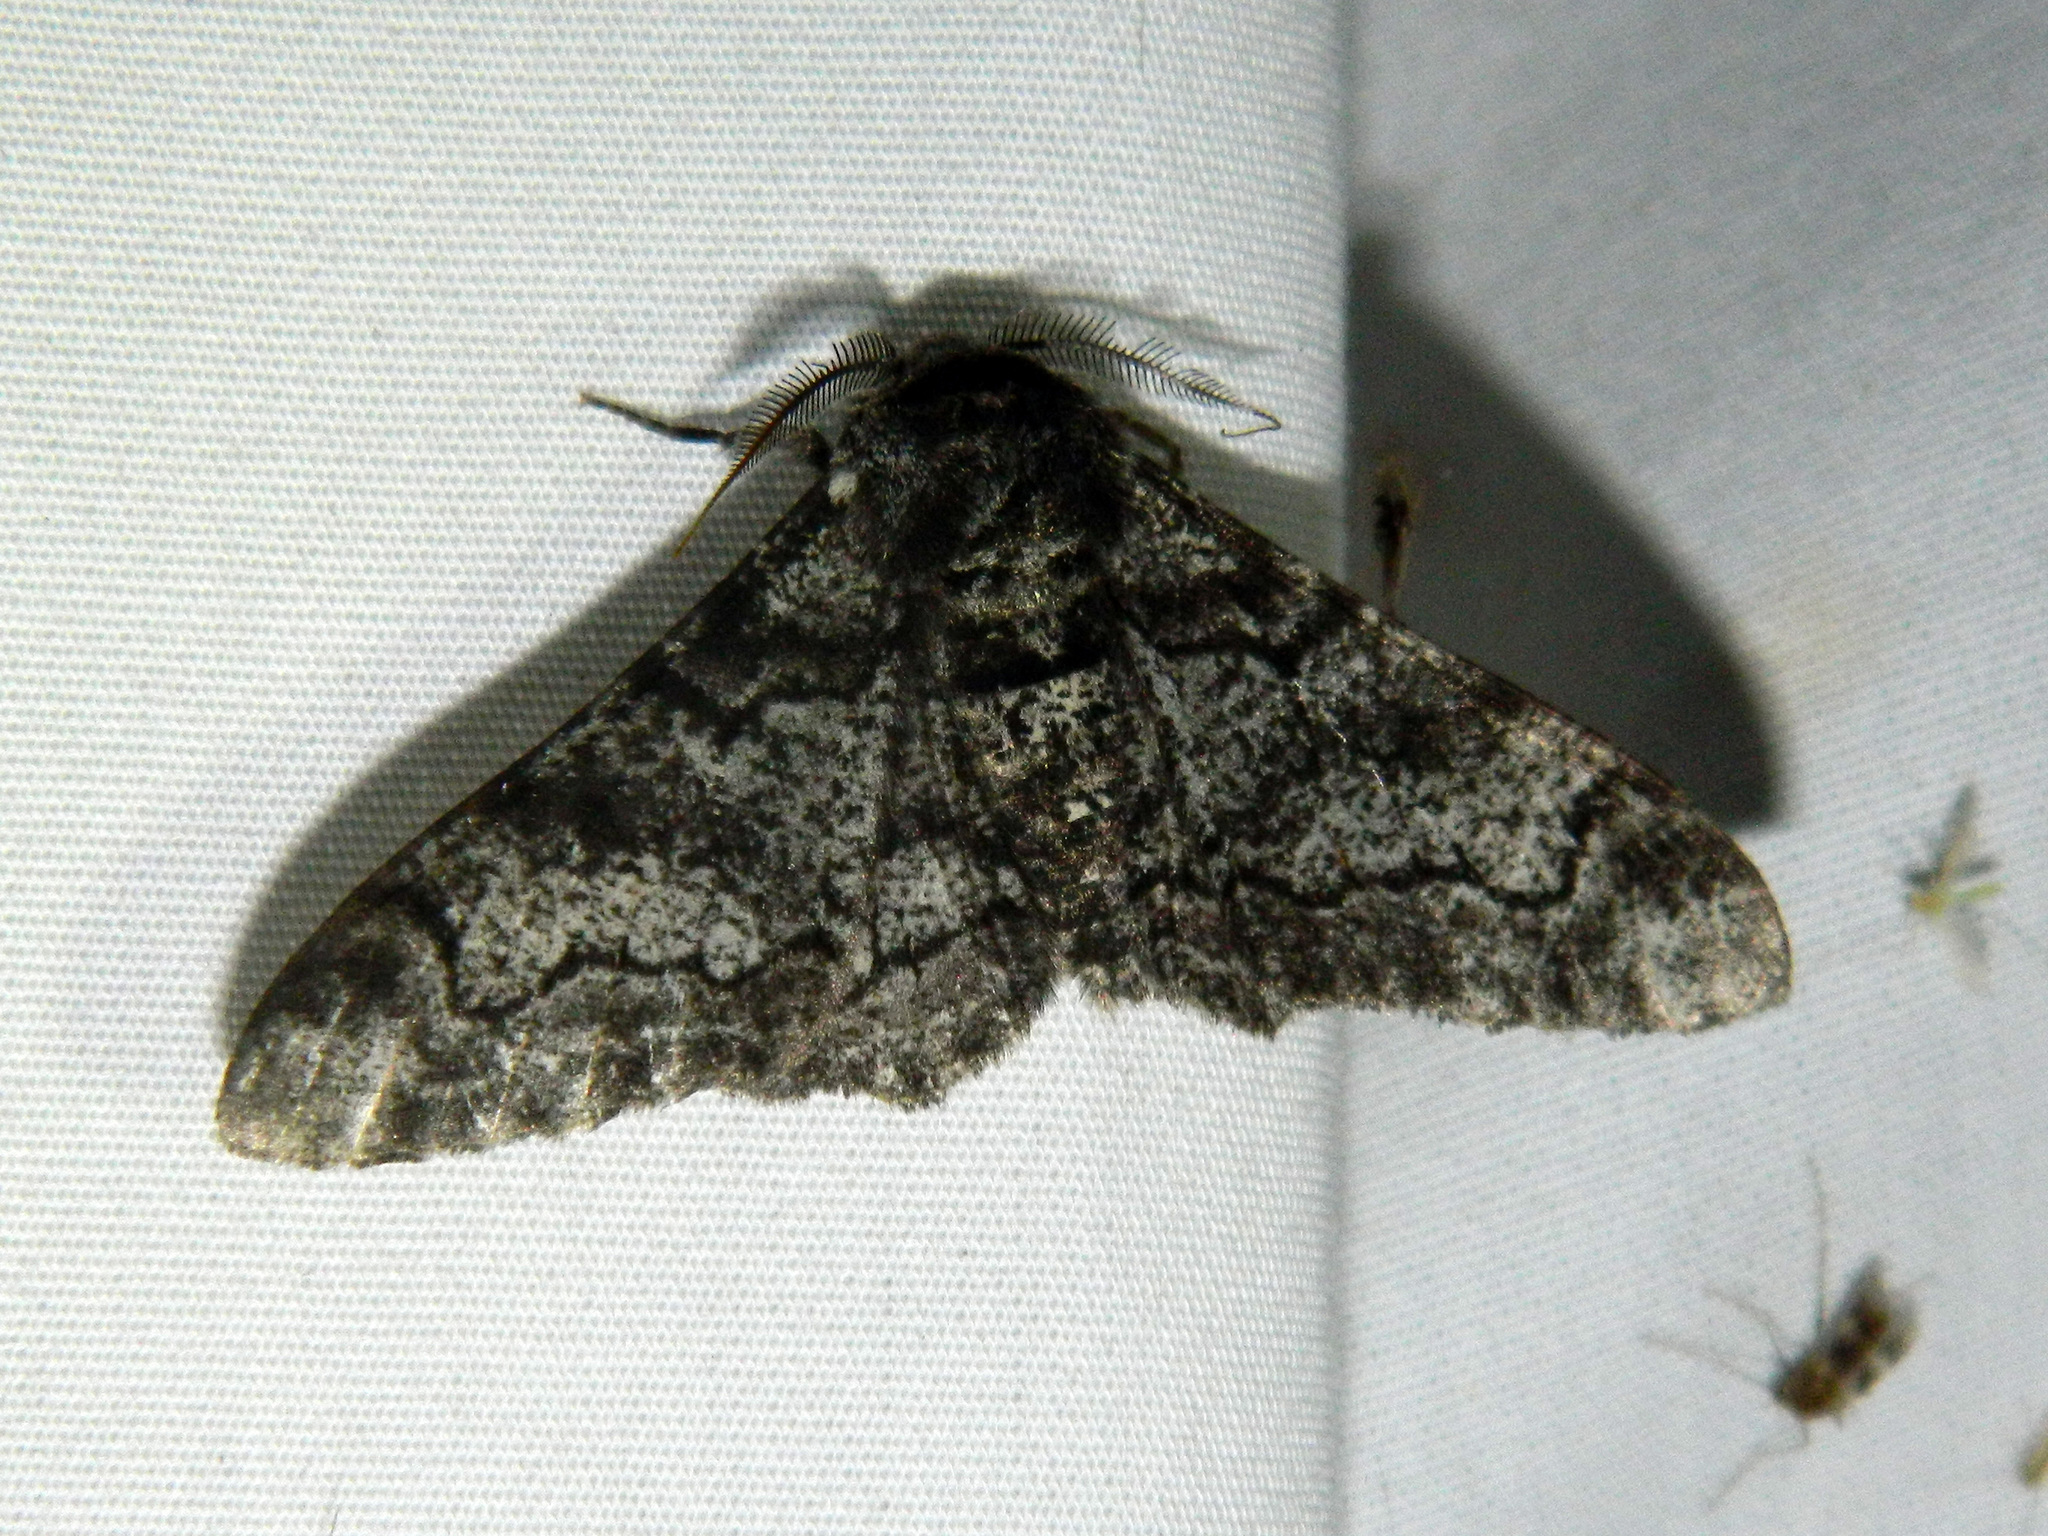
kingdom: Animalia
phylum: Arthropoda
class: Insecta
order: Lepidoptera
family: Geometridae
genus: Biston
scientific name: Biston betularia
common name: Peppered moth
